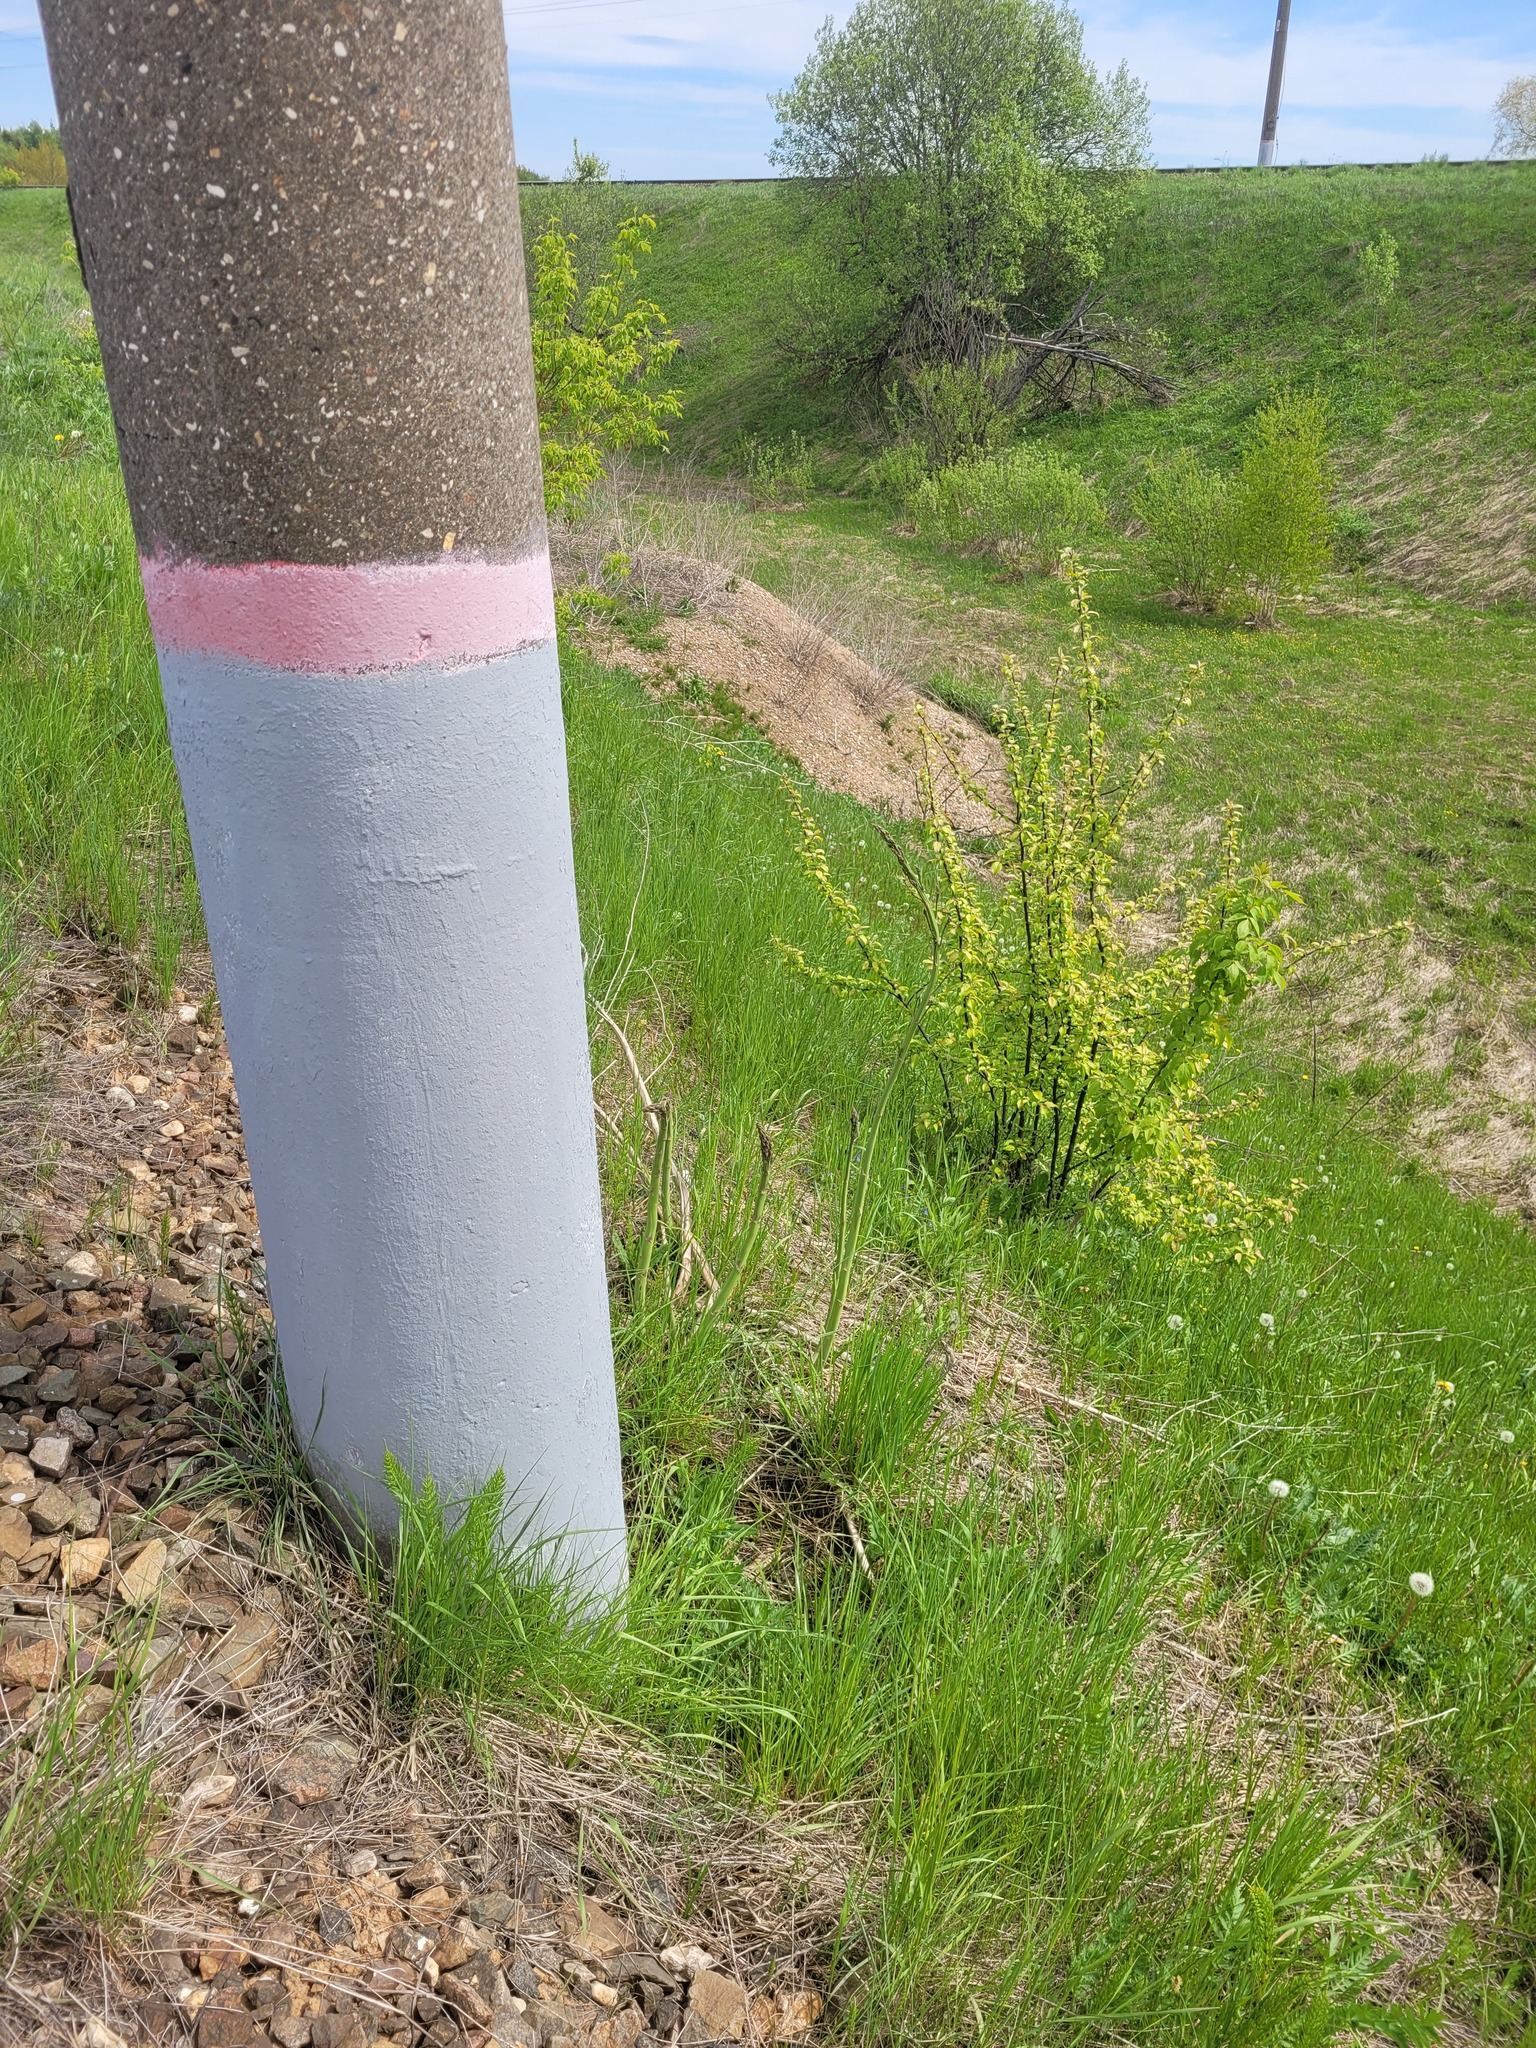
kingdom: Plantae
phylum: Tracheophyta
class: Liliopsida
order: Asparagales
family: Asparagaceae
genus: Asparagus
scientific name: Asparagus officinalis
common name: Garden asparagus
